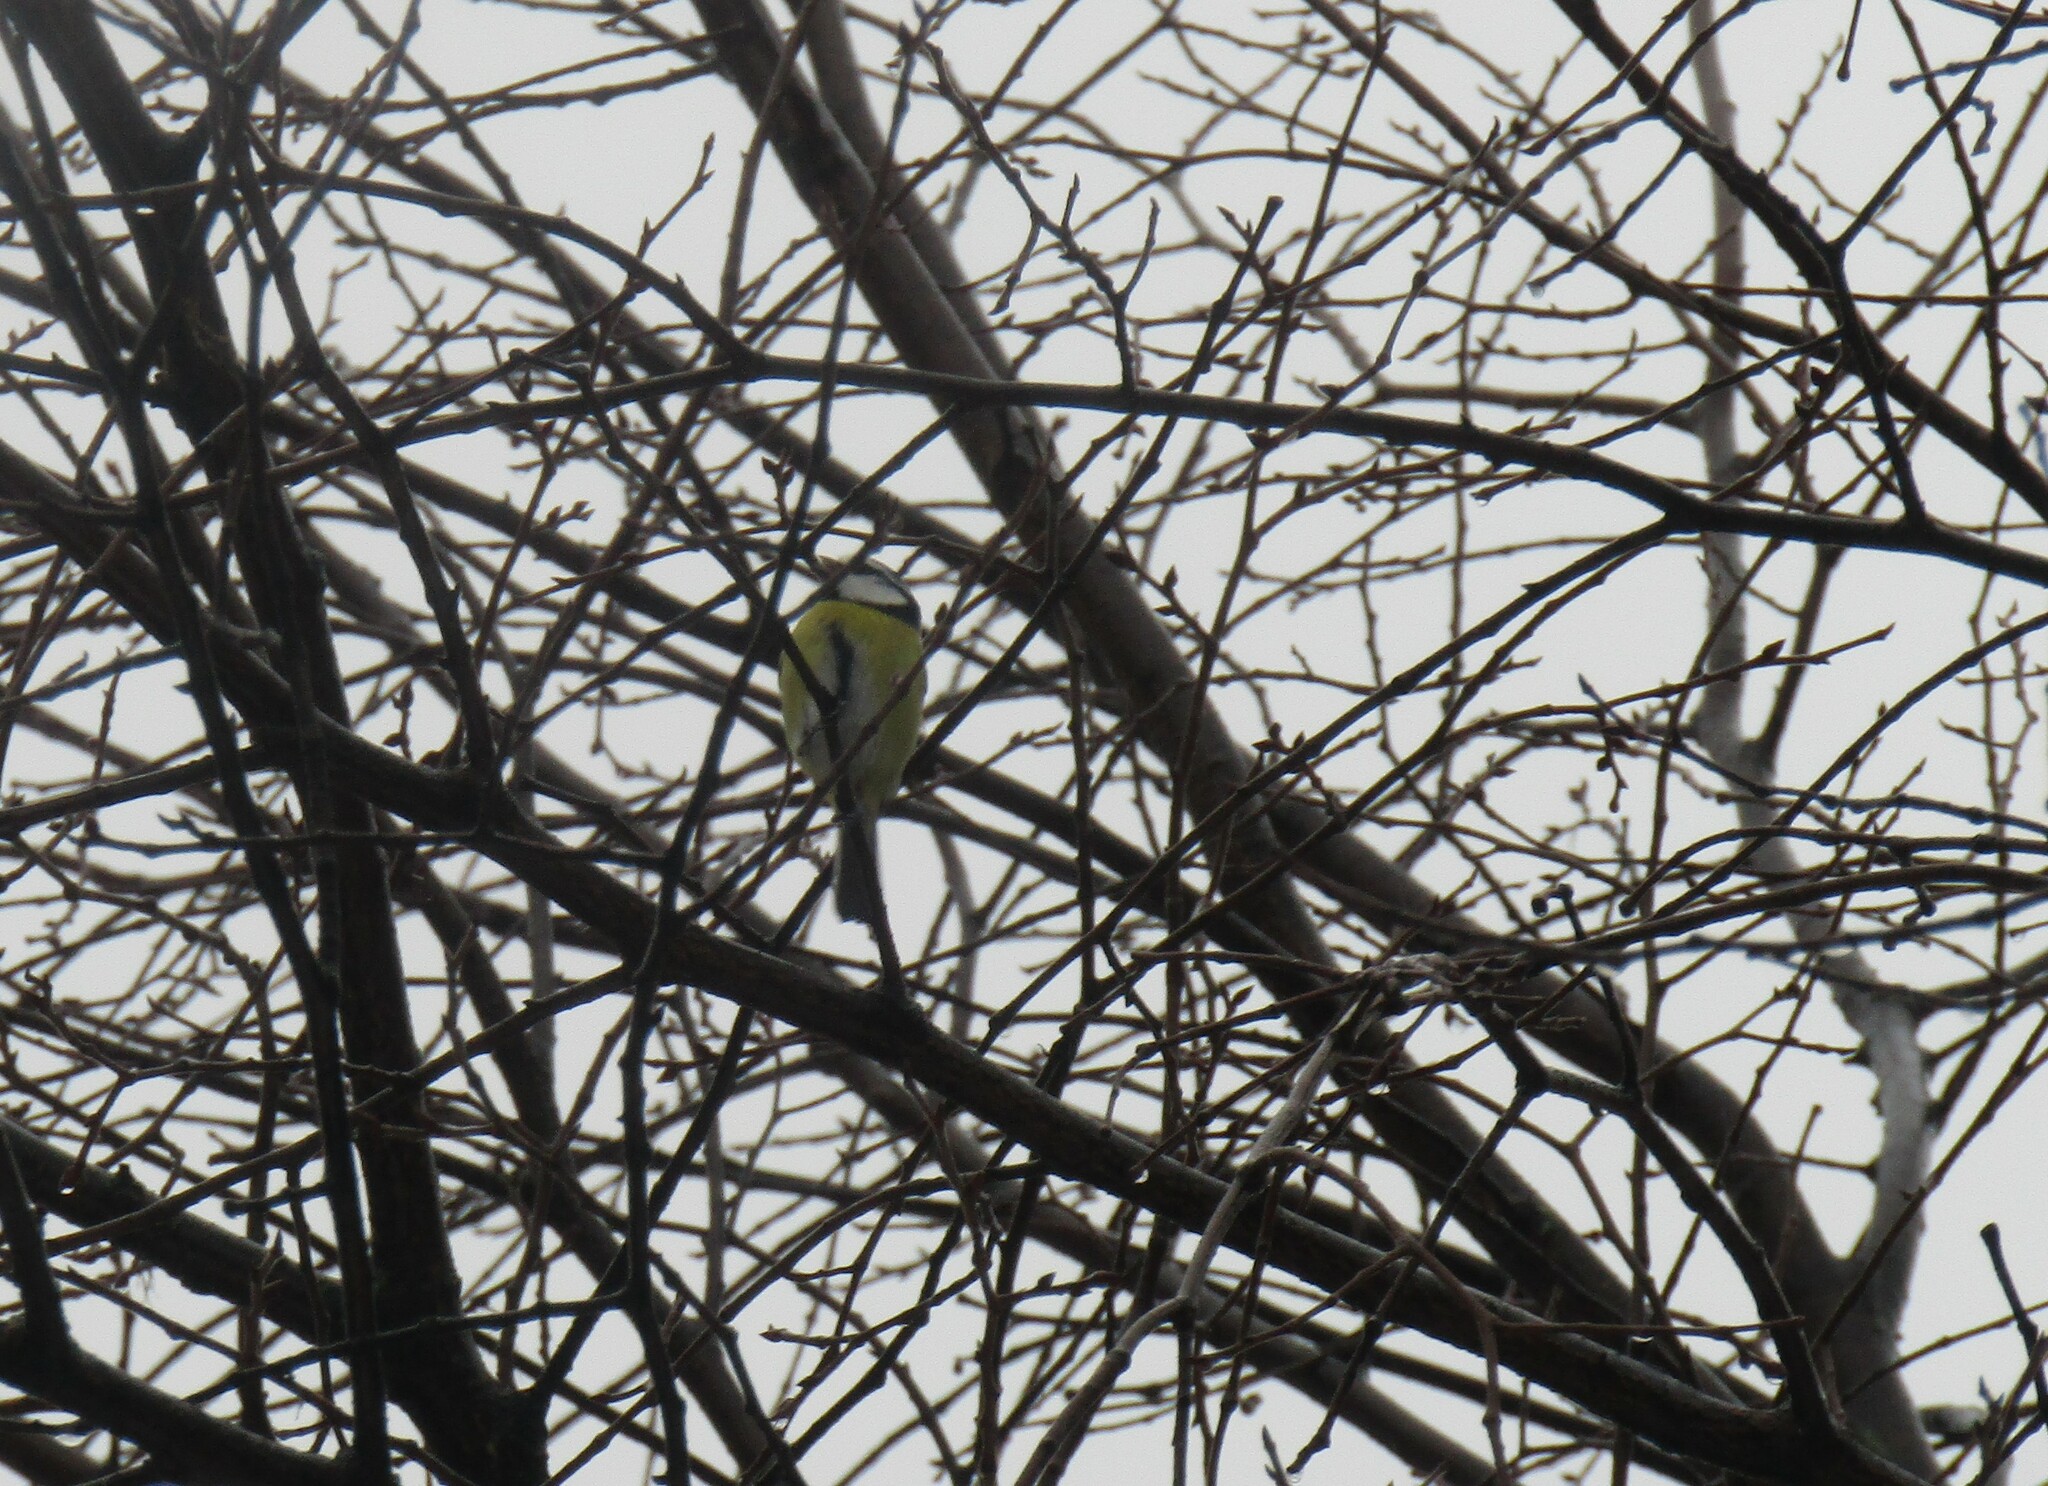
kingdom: Animalia
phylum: Chordata
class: Aves
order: Passeriformes
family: Paridae
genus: Cyanistes
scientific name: Cyanistes caeruleus
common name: Eurasian blue tit
